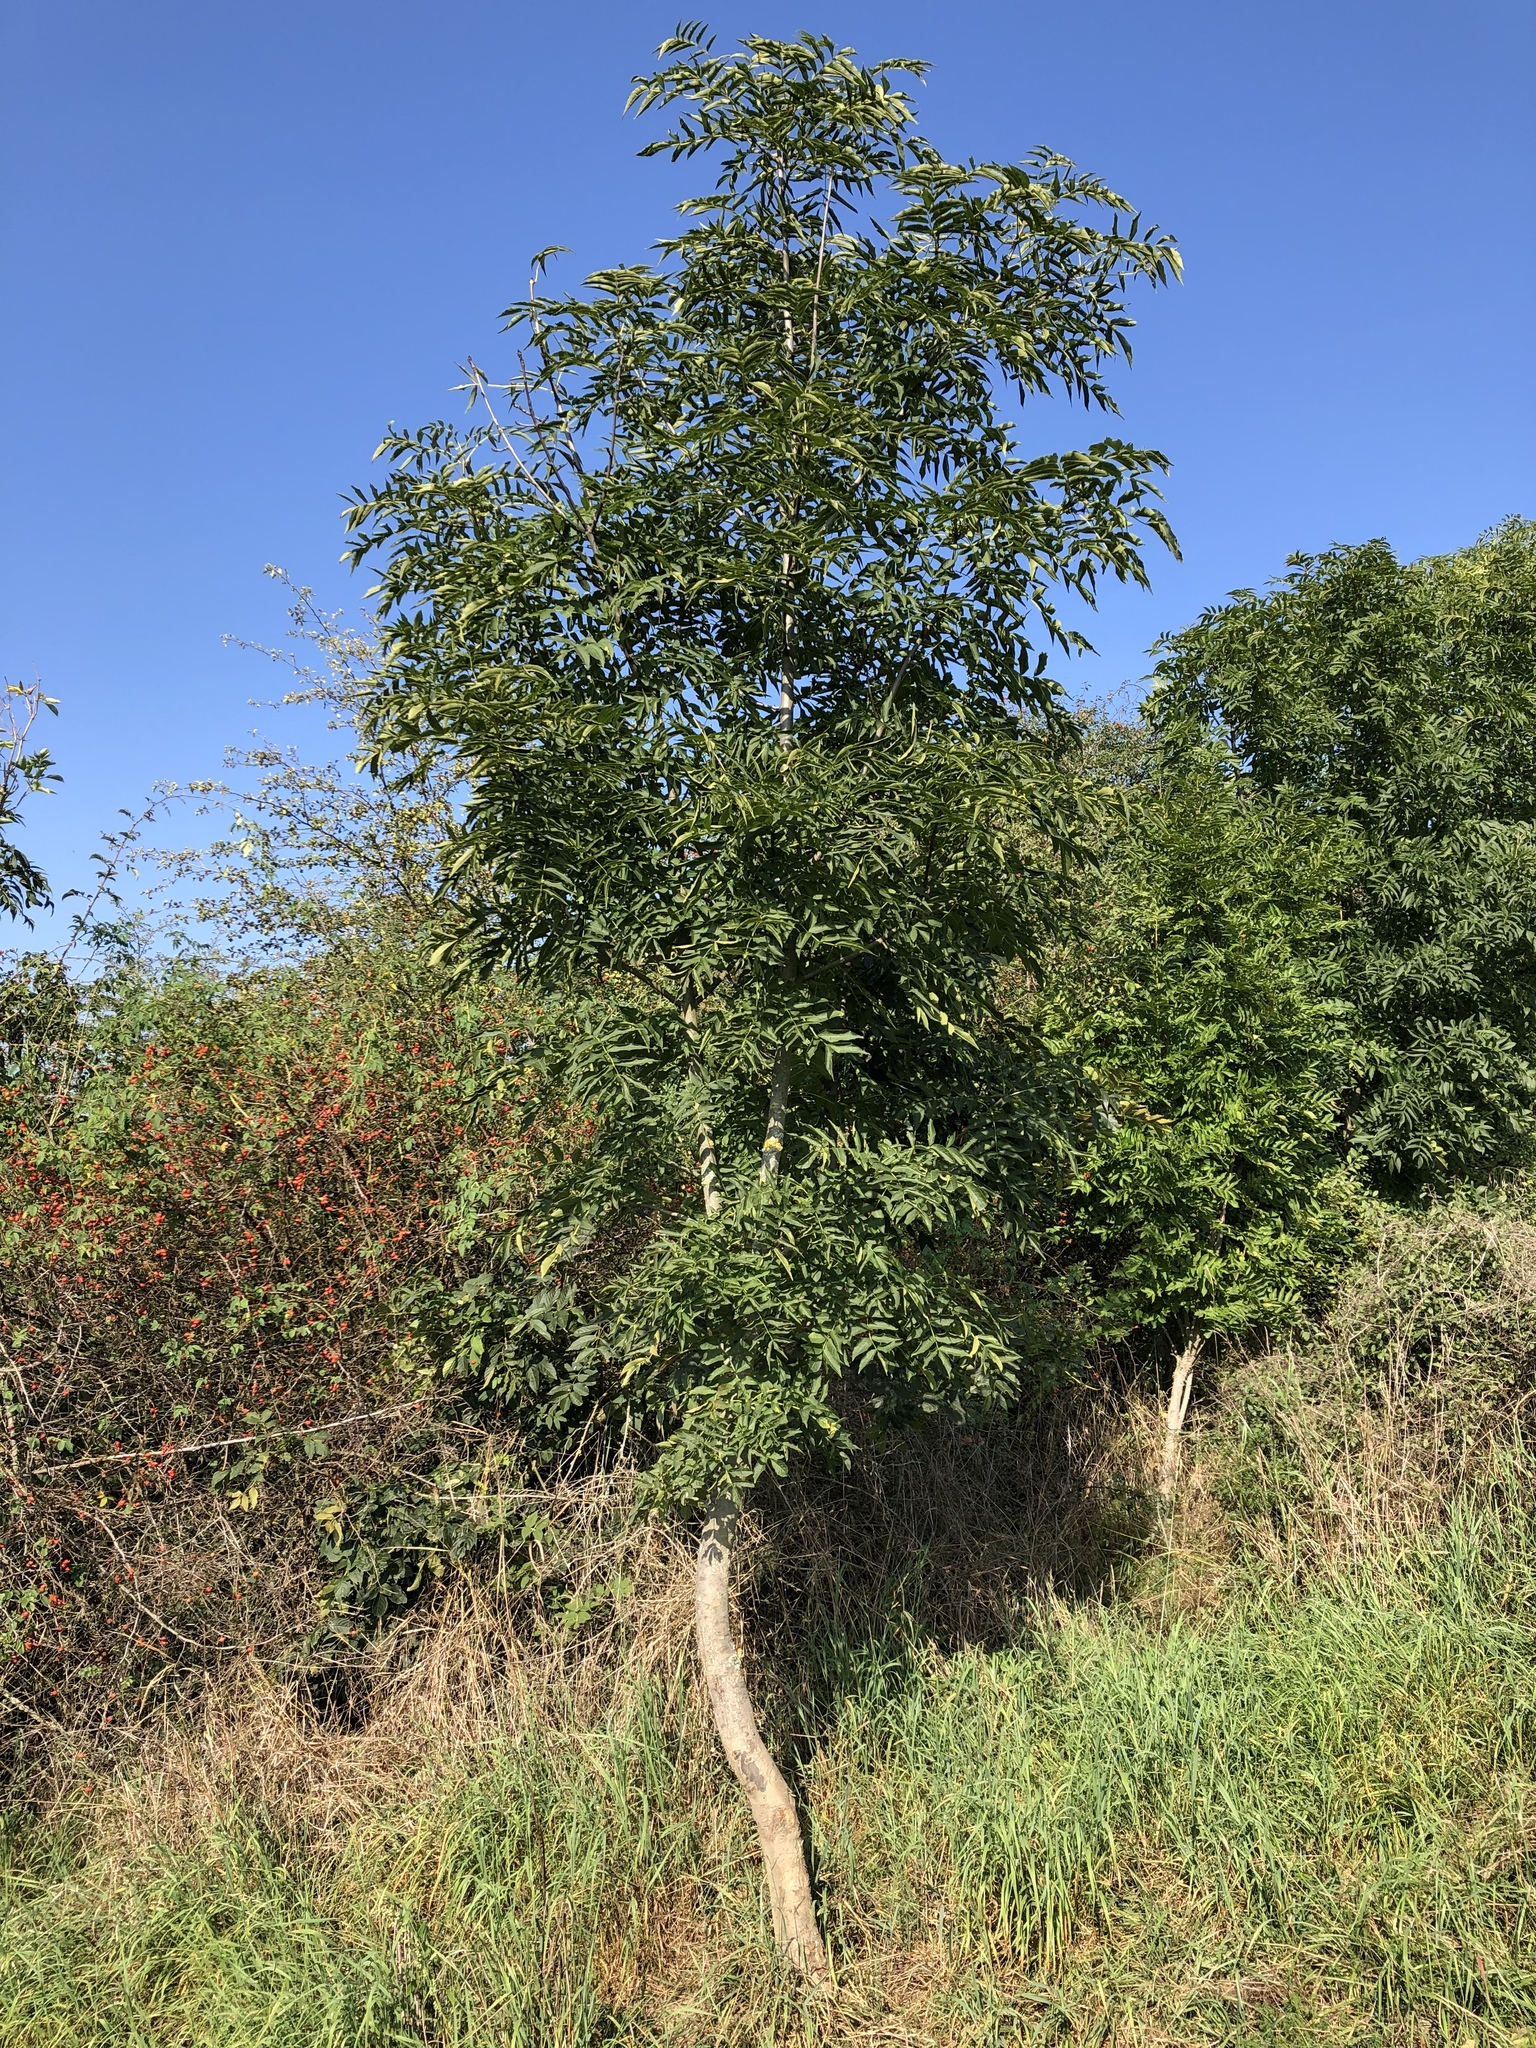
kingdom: Plantae
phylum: Tracheophyta
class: Magnoliopsida
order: Lamiales
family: Oleaceae
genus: Fraxinus
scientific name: Fraxinus excelsior
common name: European ash
